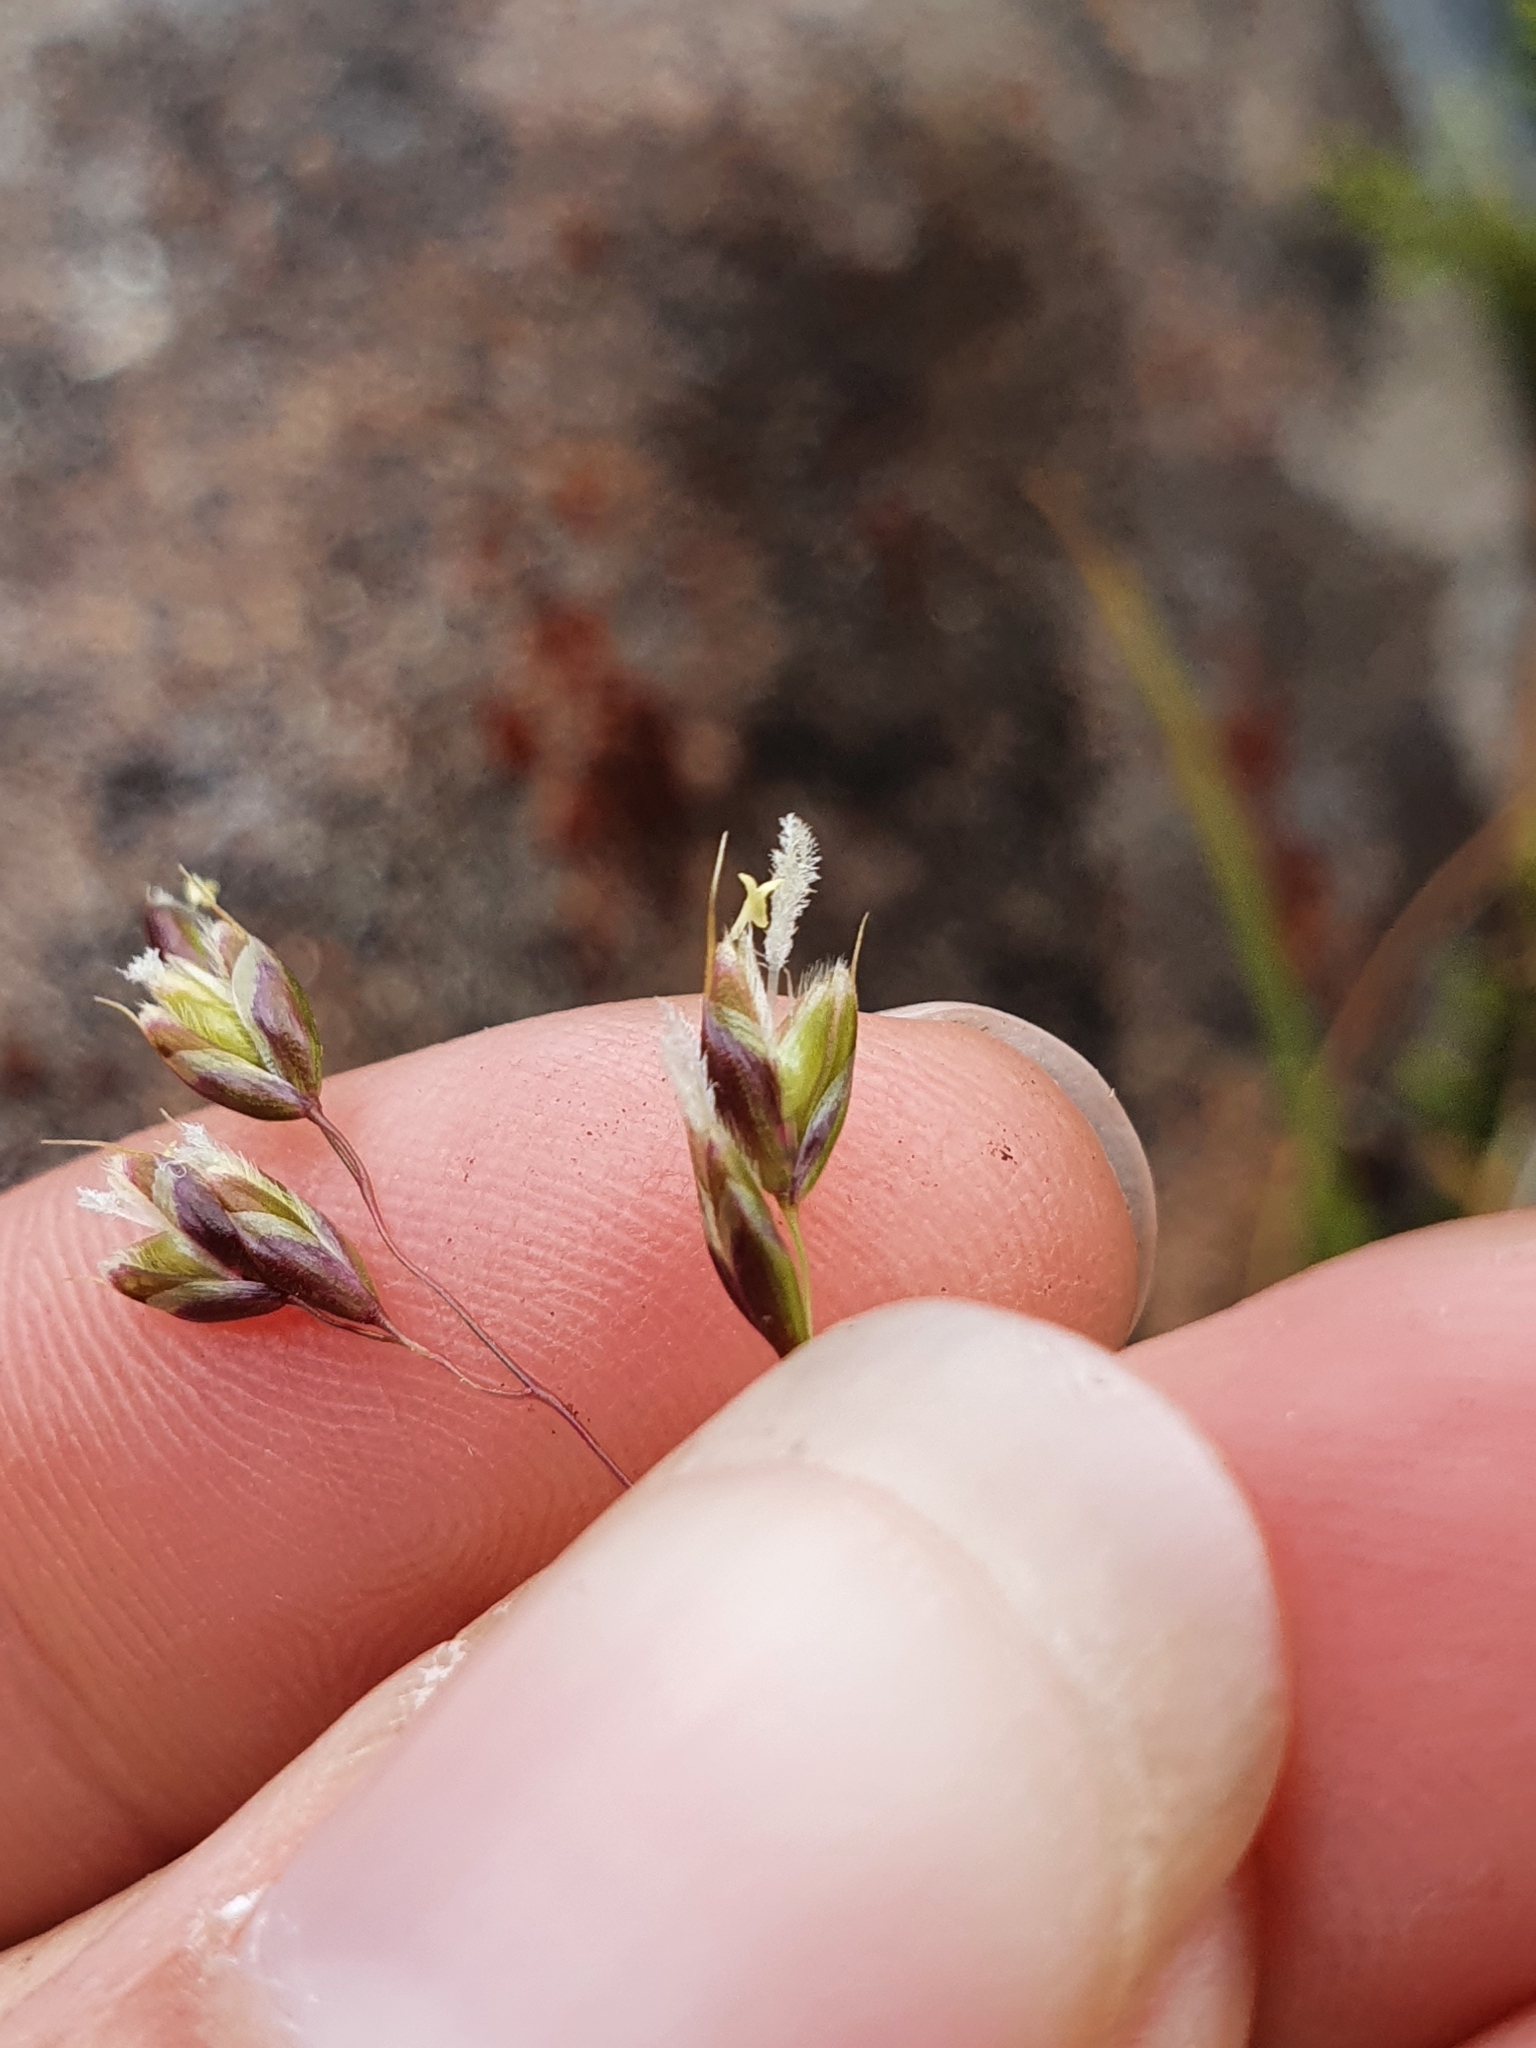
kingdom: Plantae
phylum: Tracheophyta
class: Liliopsida
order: Poales
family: Poaceae
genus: Anthoxanthum
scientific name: Anthoxanthum novae-zelandiae
